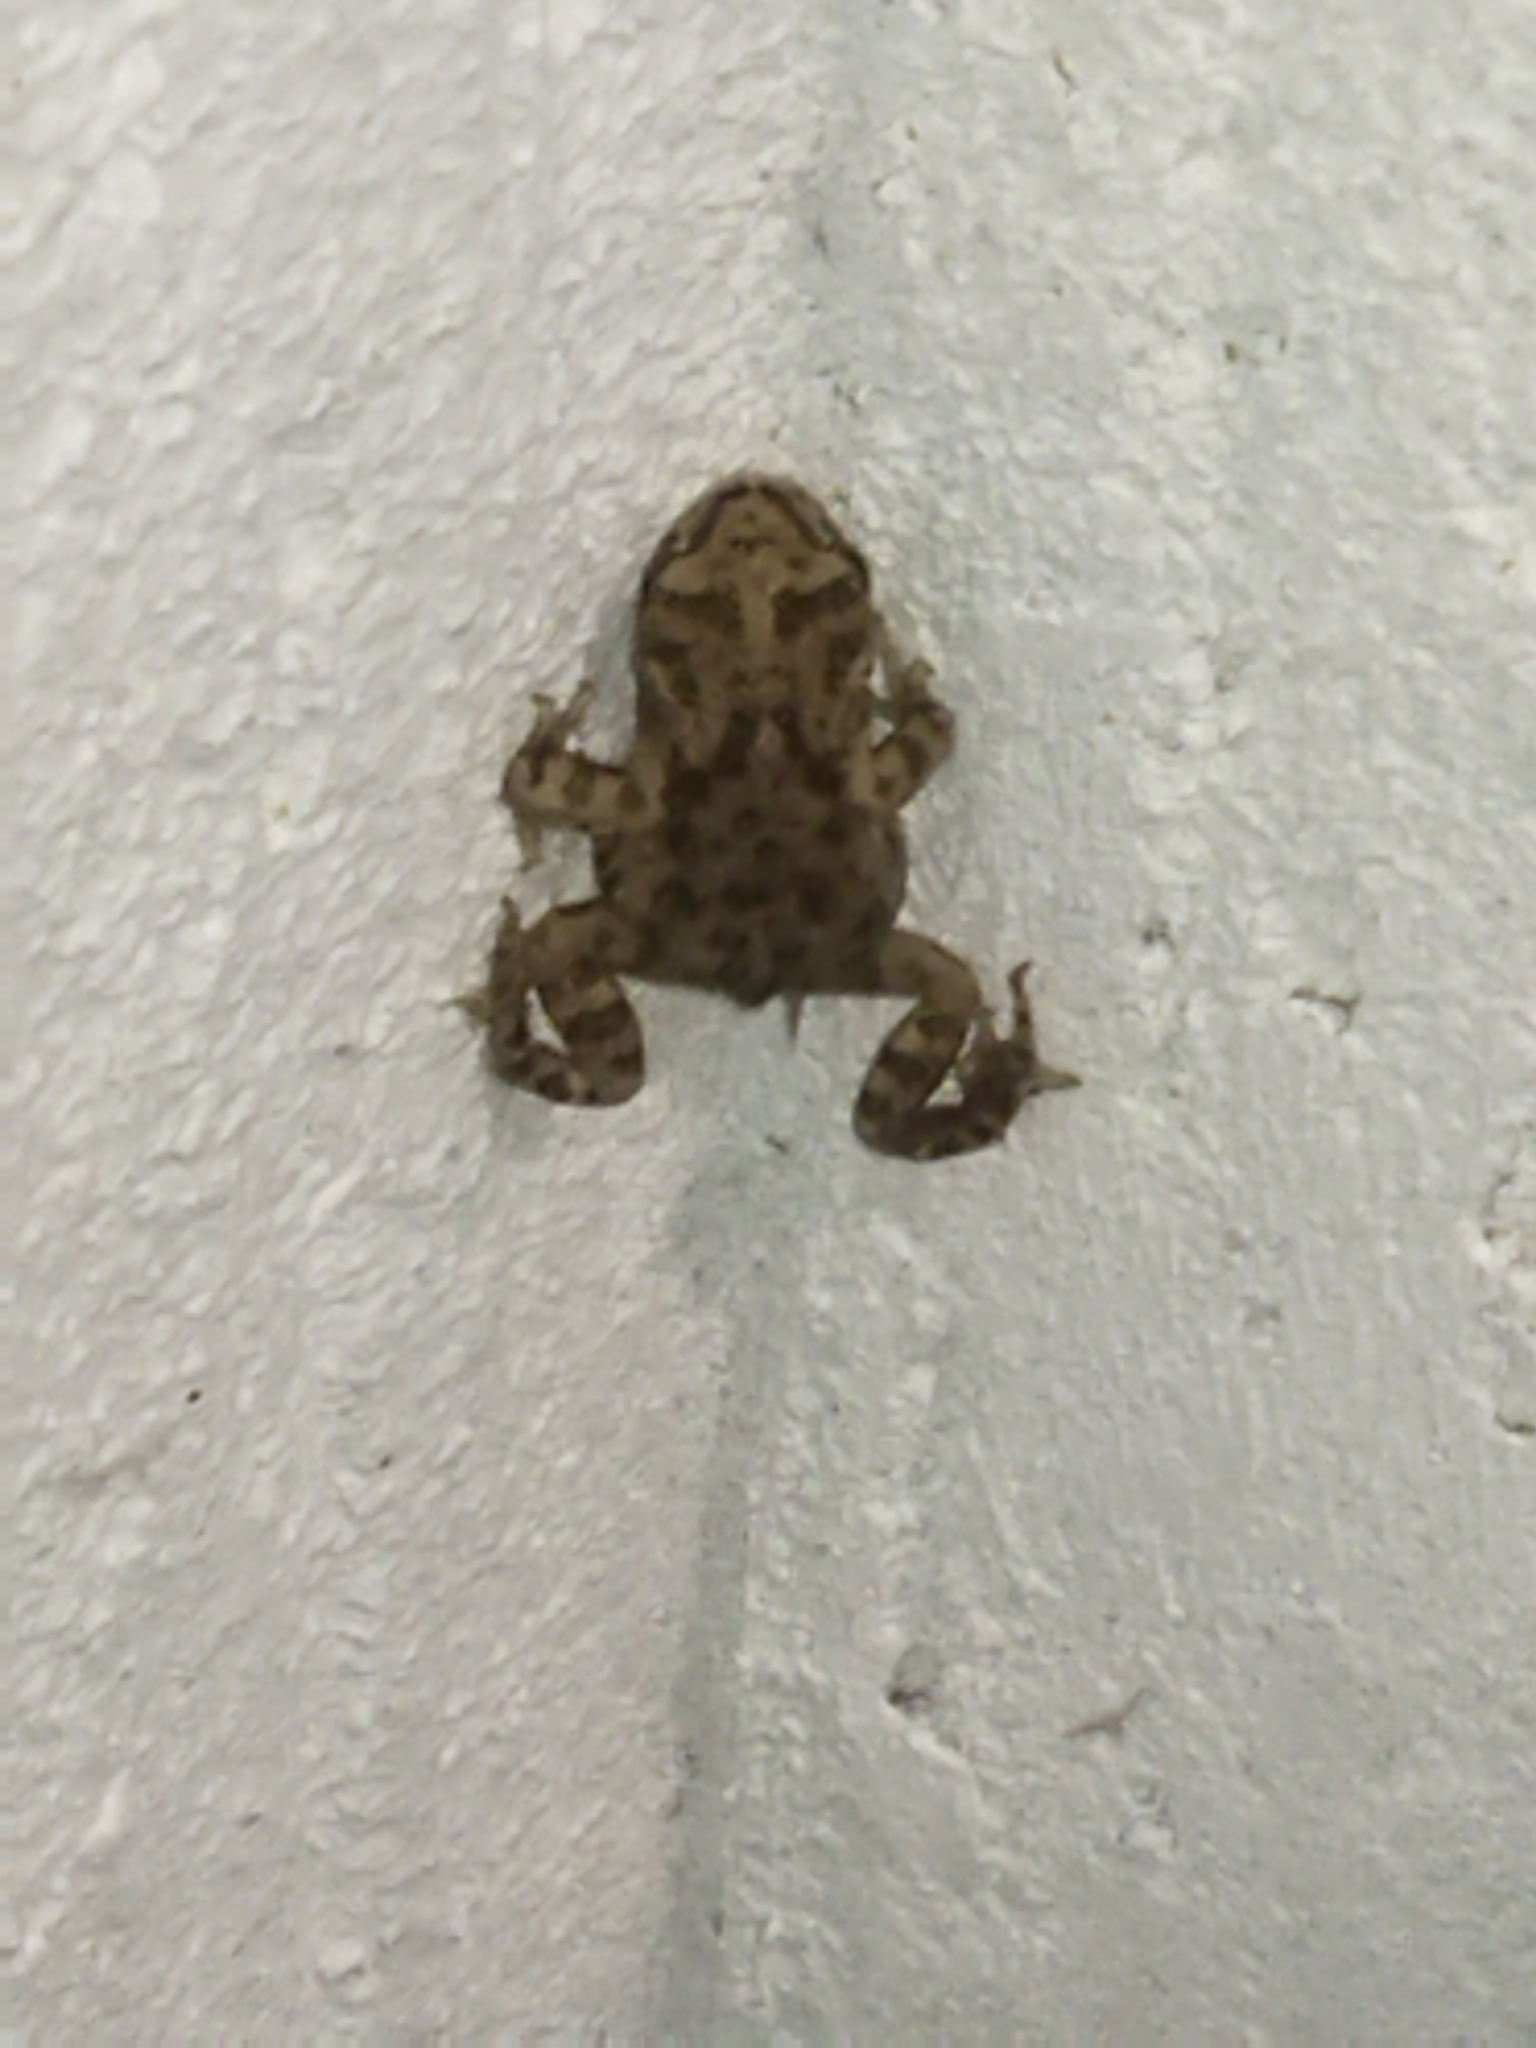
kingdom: Animalia
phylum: Chordata
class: Amphibia
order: Anura
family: Bufonidae
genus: Bufotes
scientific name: Bufotes viridis
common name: European green toad
